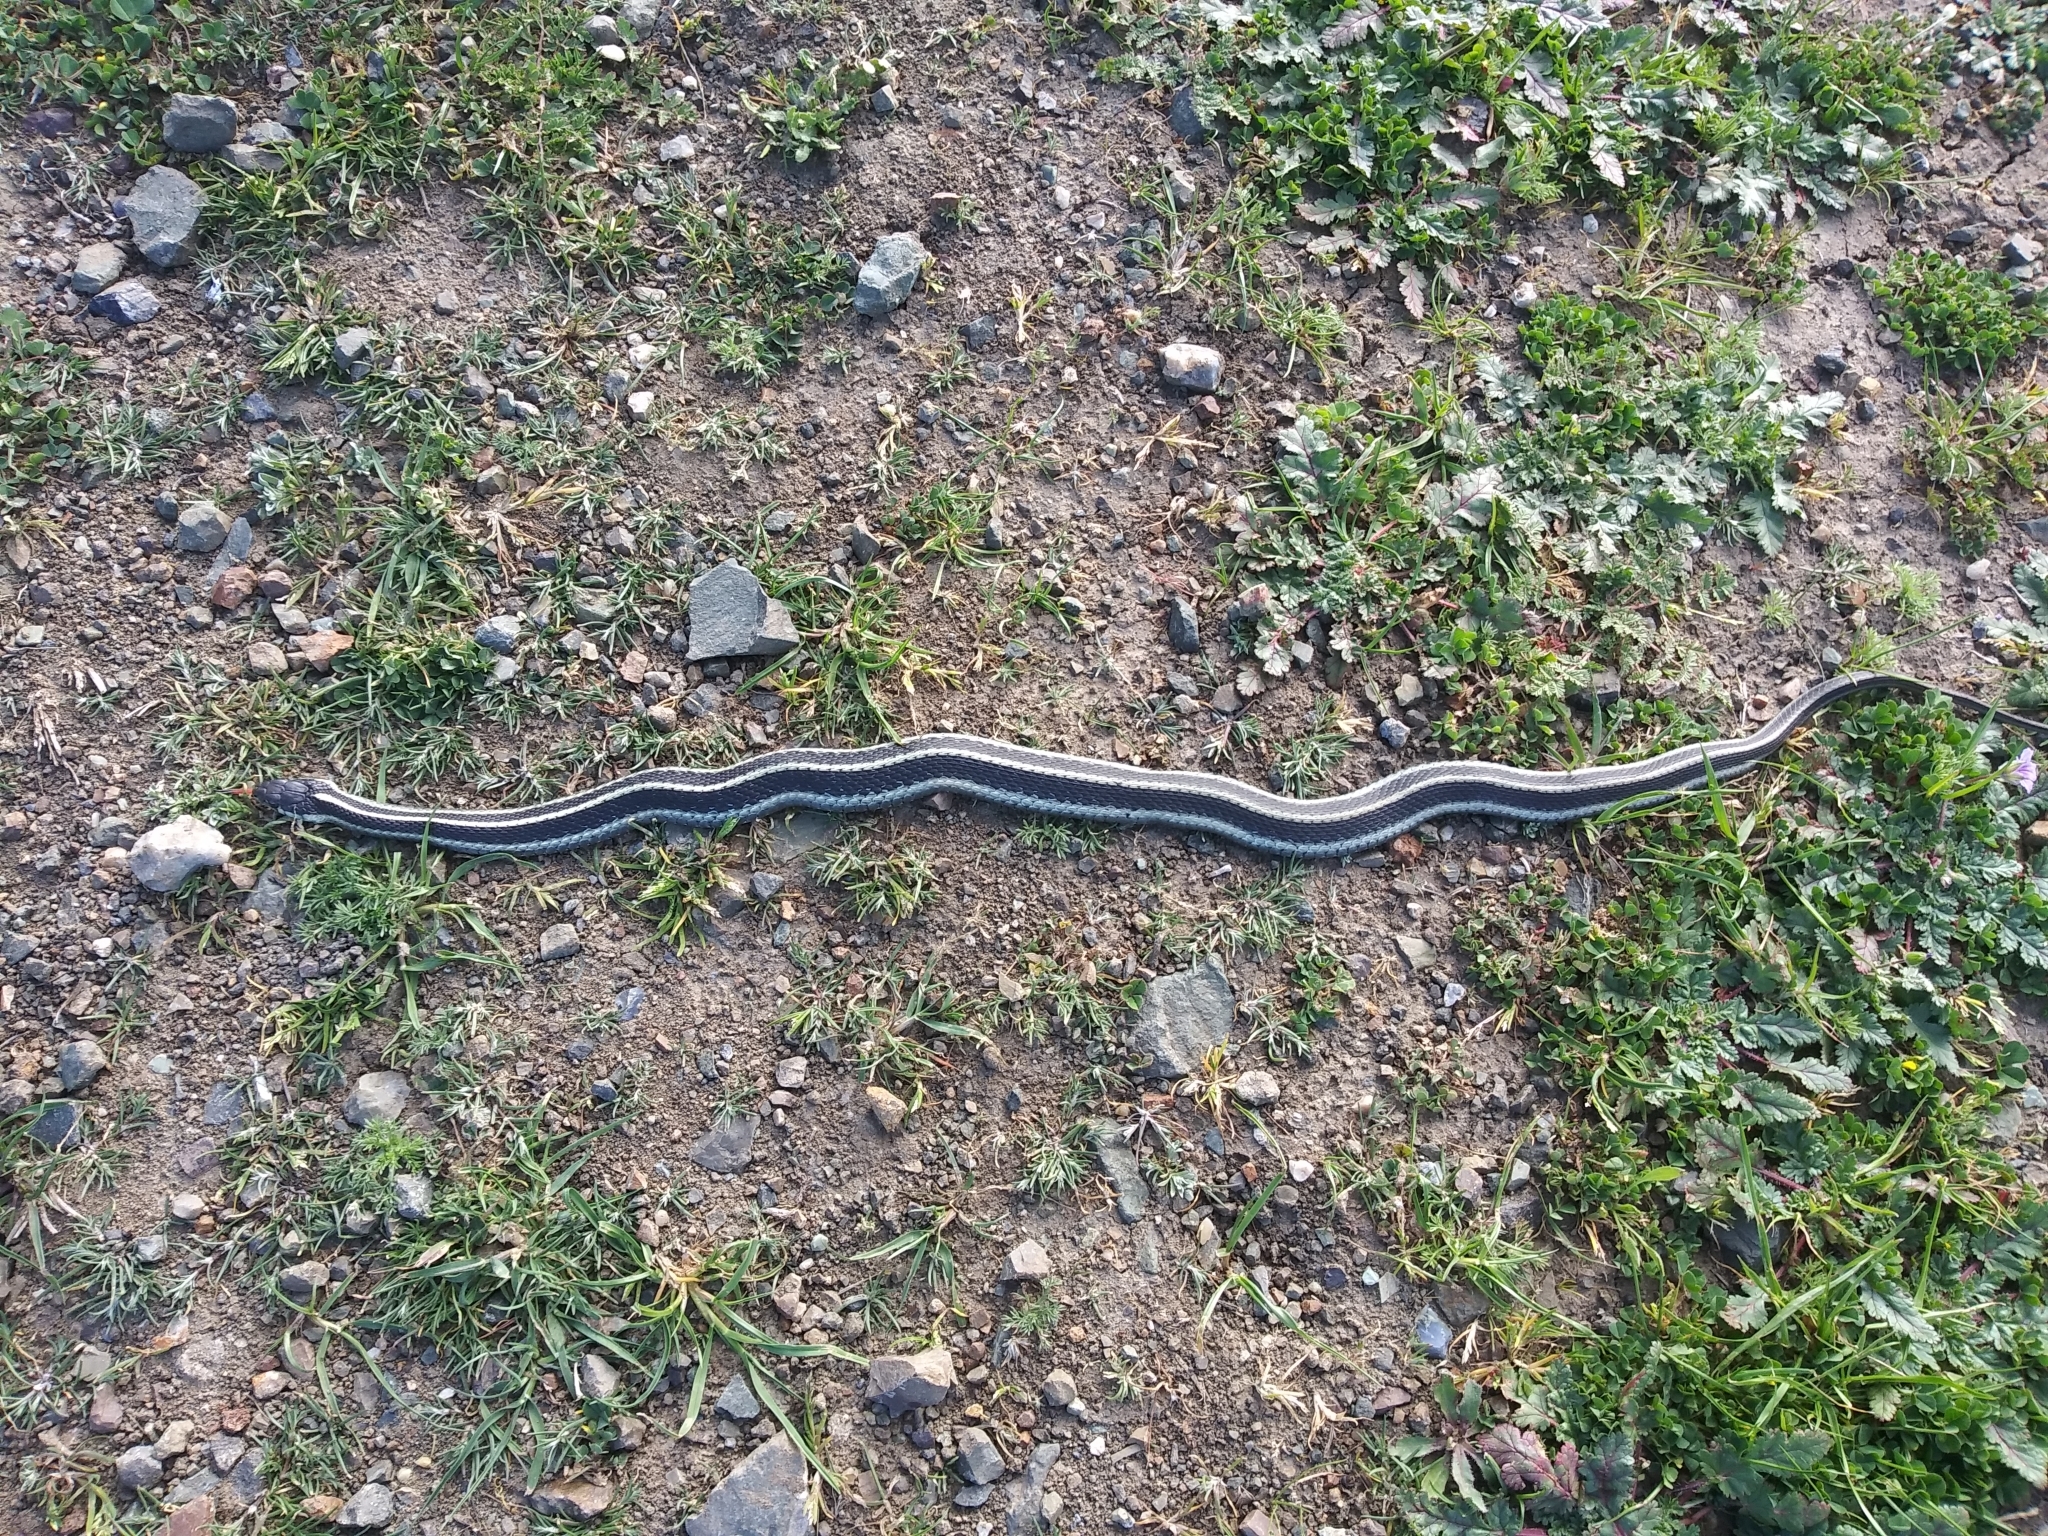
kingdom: Animalia
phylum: Chordata
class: Squamata
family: Colubridae
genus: Thamnophis
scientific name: Thamnophis elegans
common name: Western terrestrial garter snake
